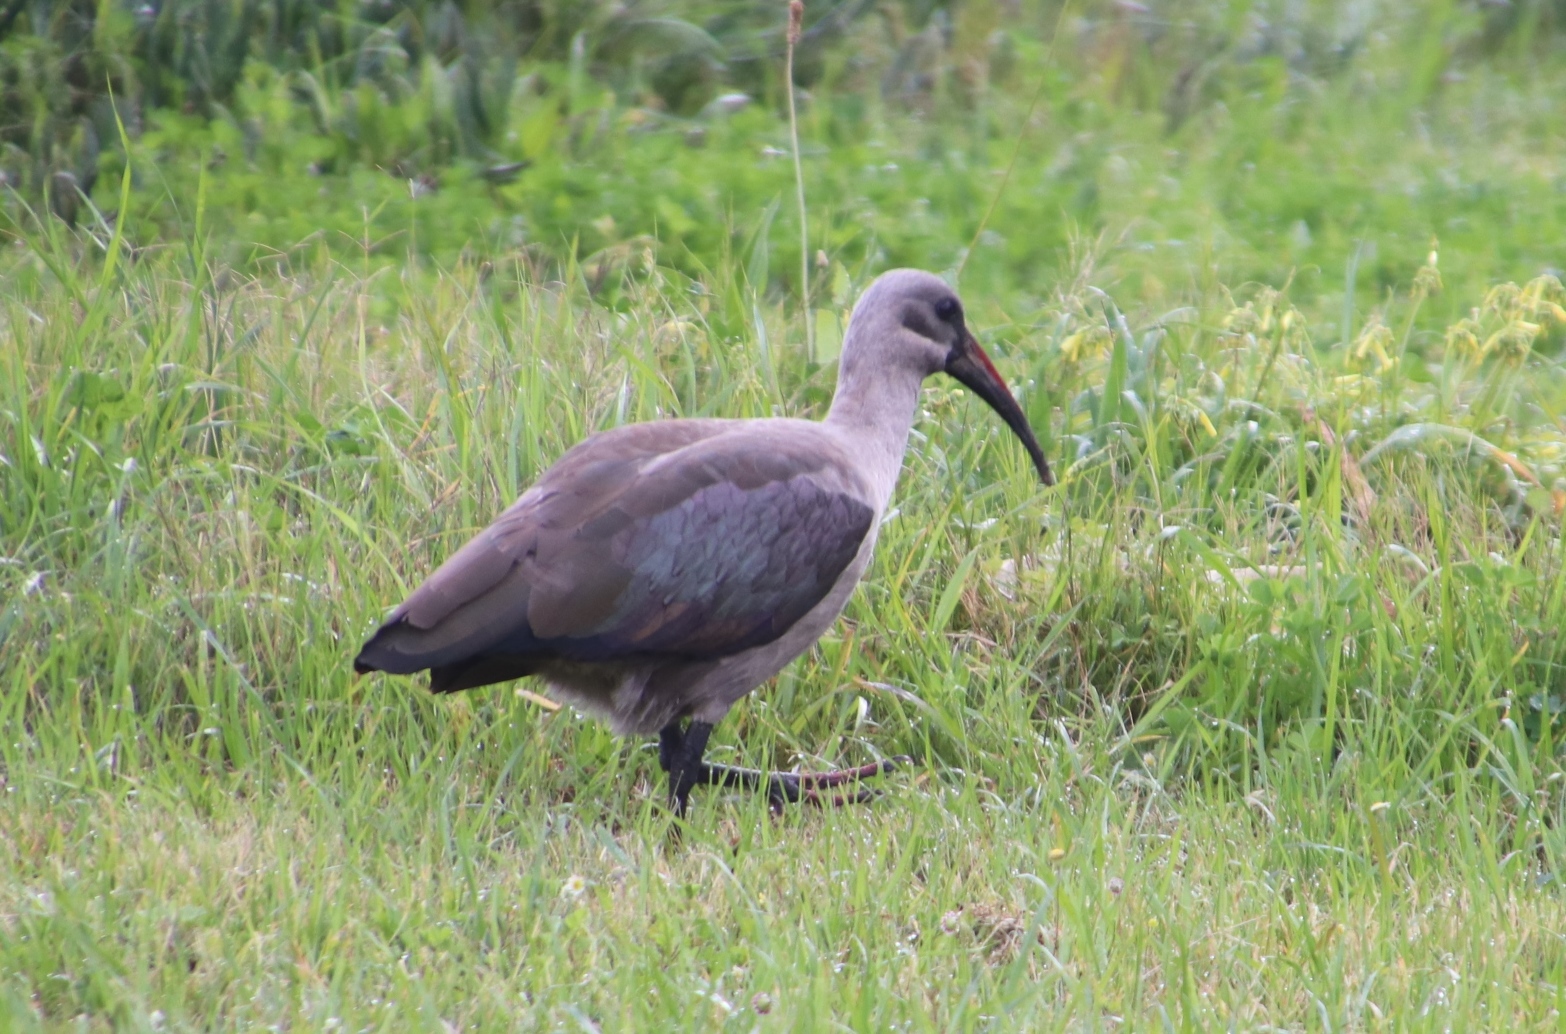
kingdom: Animalia
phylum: Chordata
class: Aves
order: Pelecaniformes
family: Threskiornithidae
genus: Bostrychia
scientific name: Bostrychia hagedash
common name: Hadada ibis
